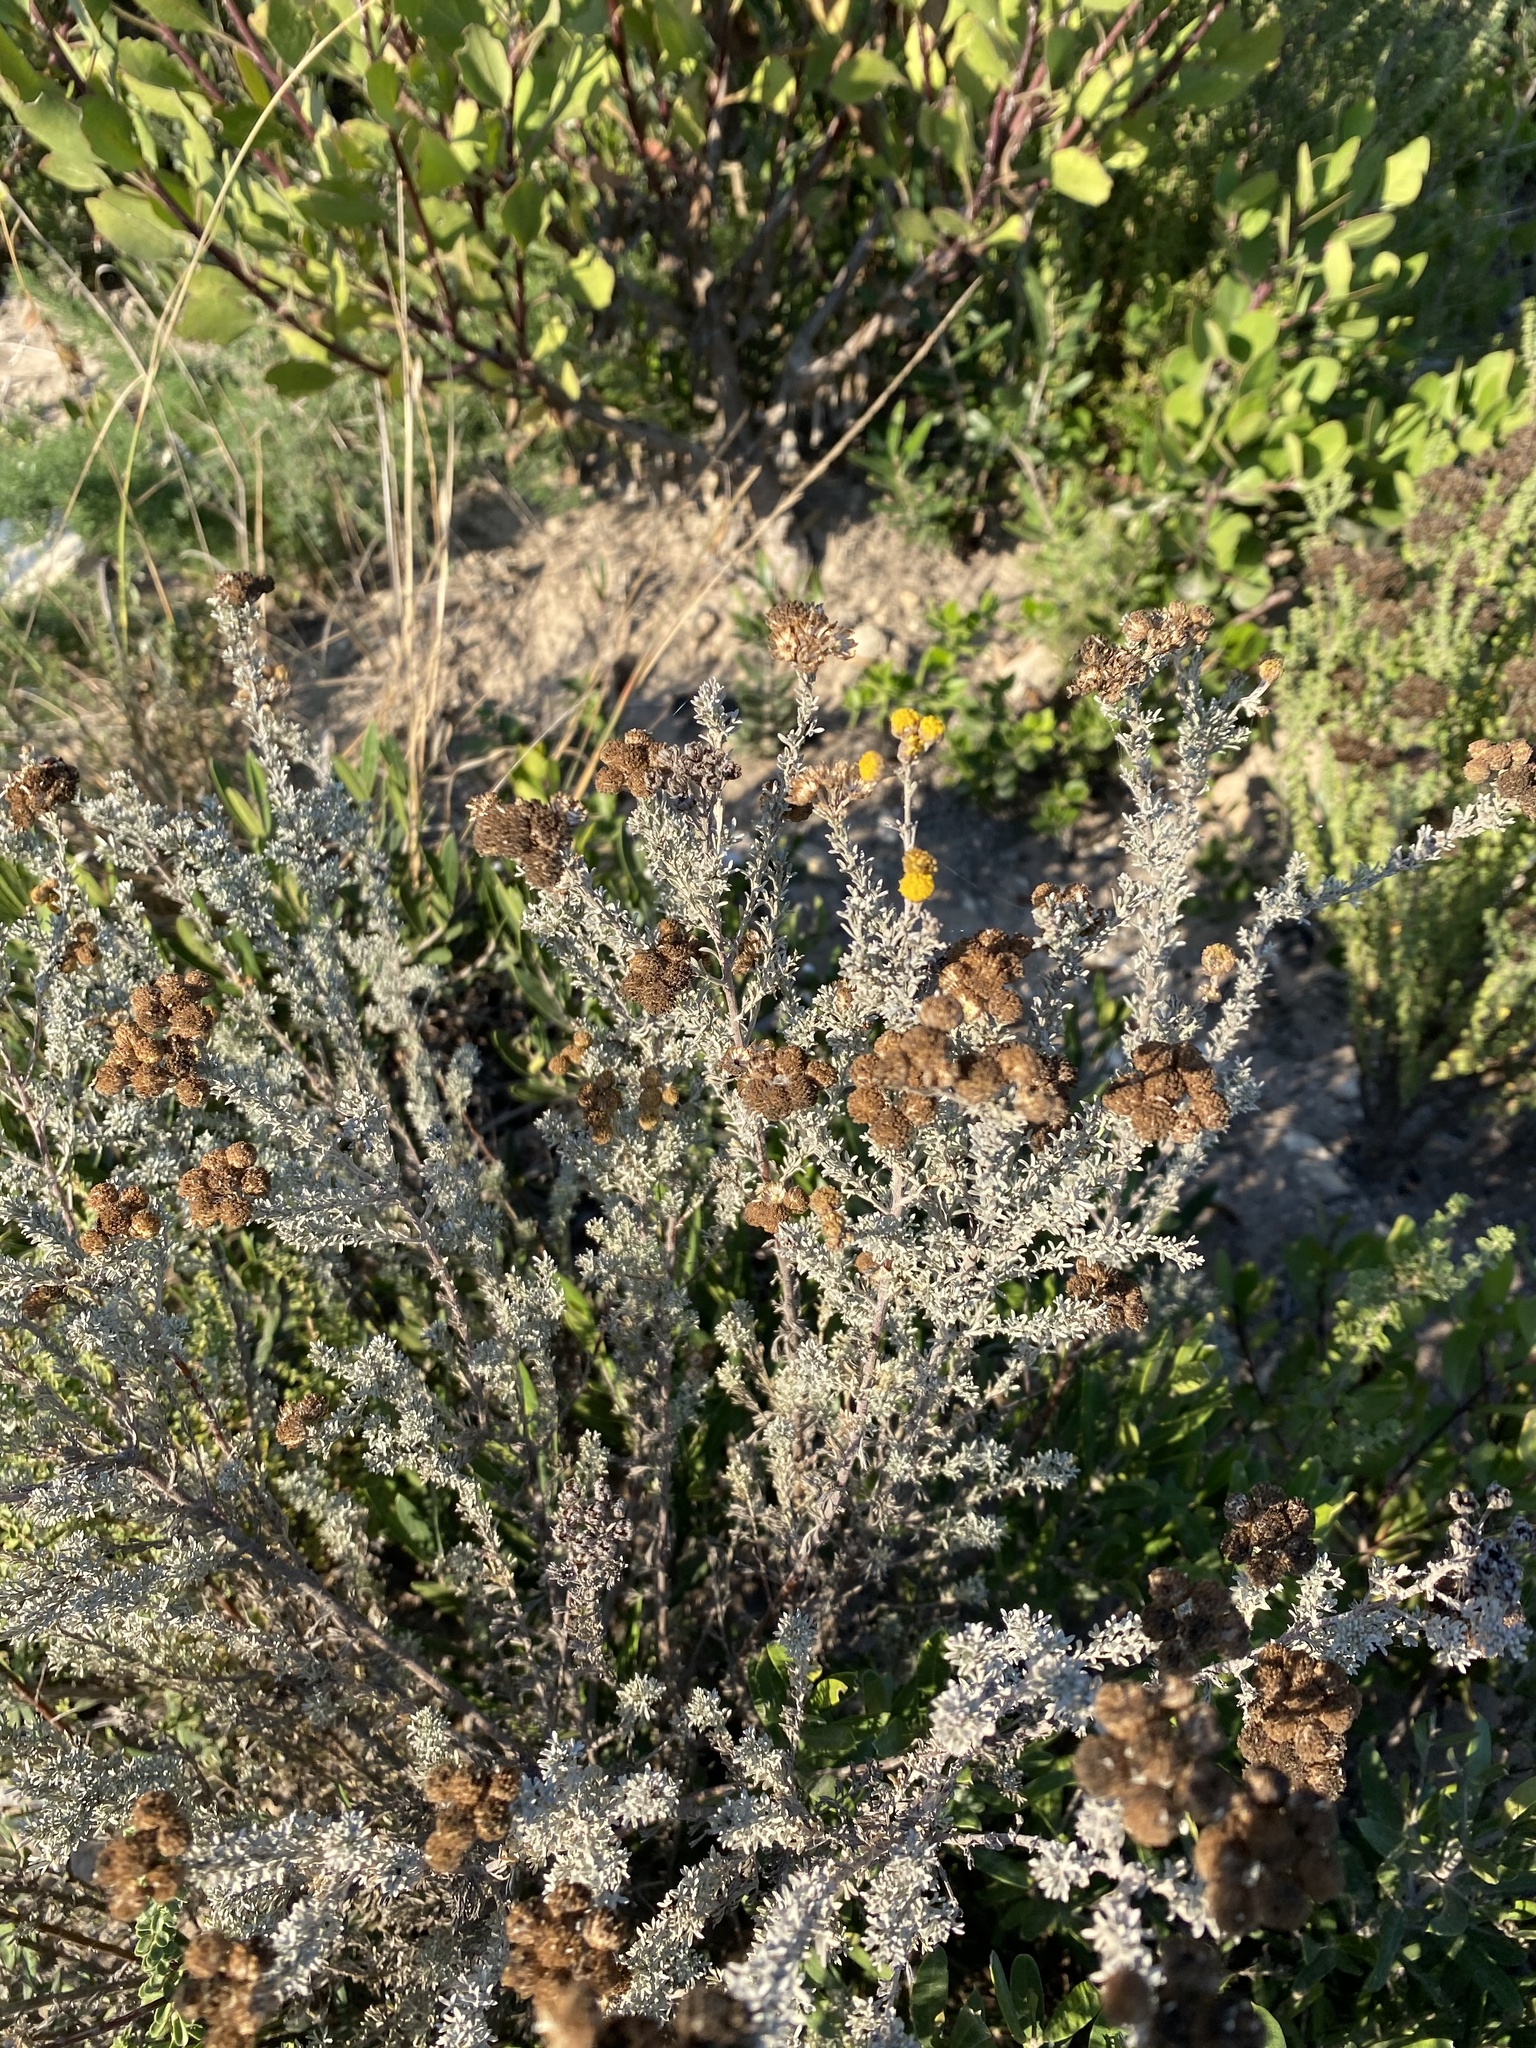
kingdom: Plantae
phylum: Tracheophyta
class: Magnoliopsida
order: Asterales
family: Asteraceae
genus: Pentzia
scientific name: Pentzia trifida
